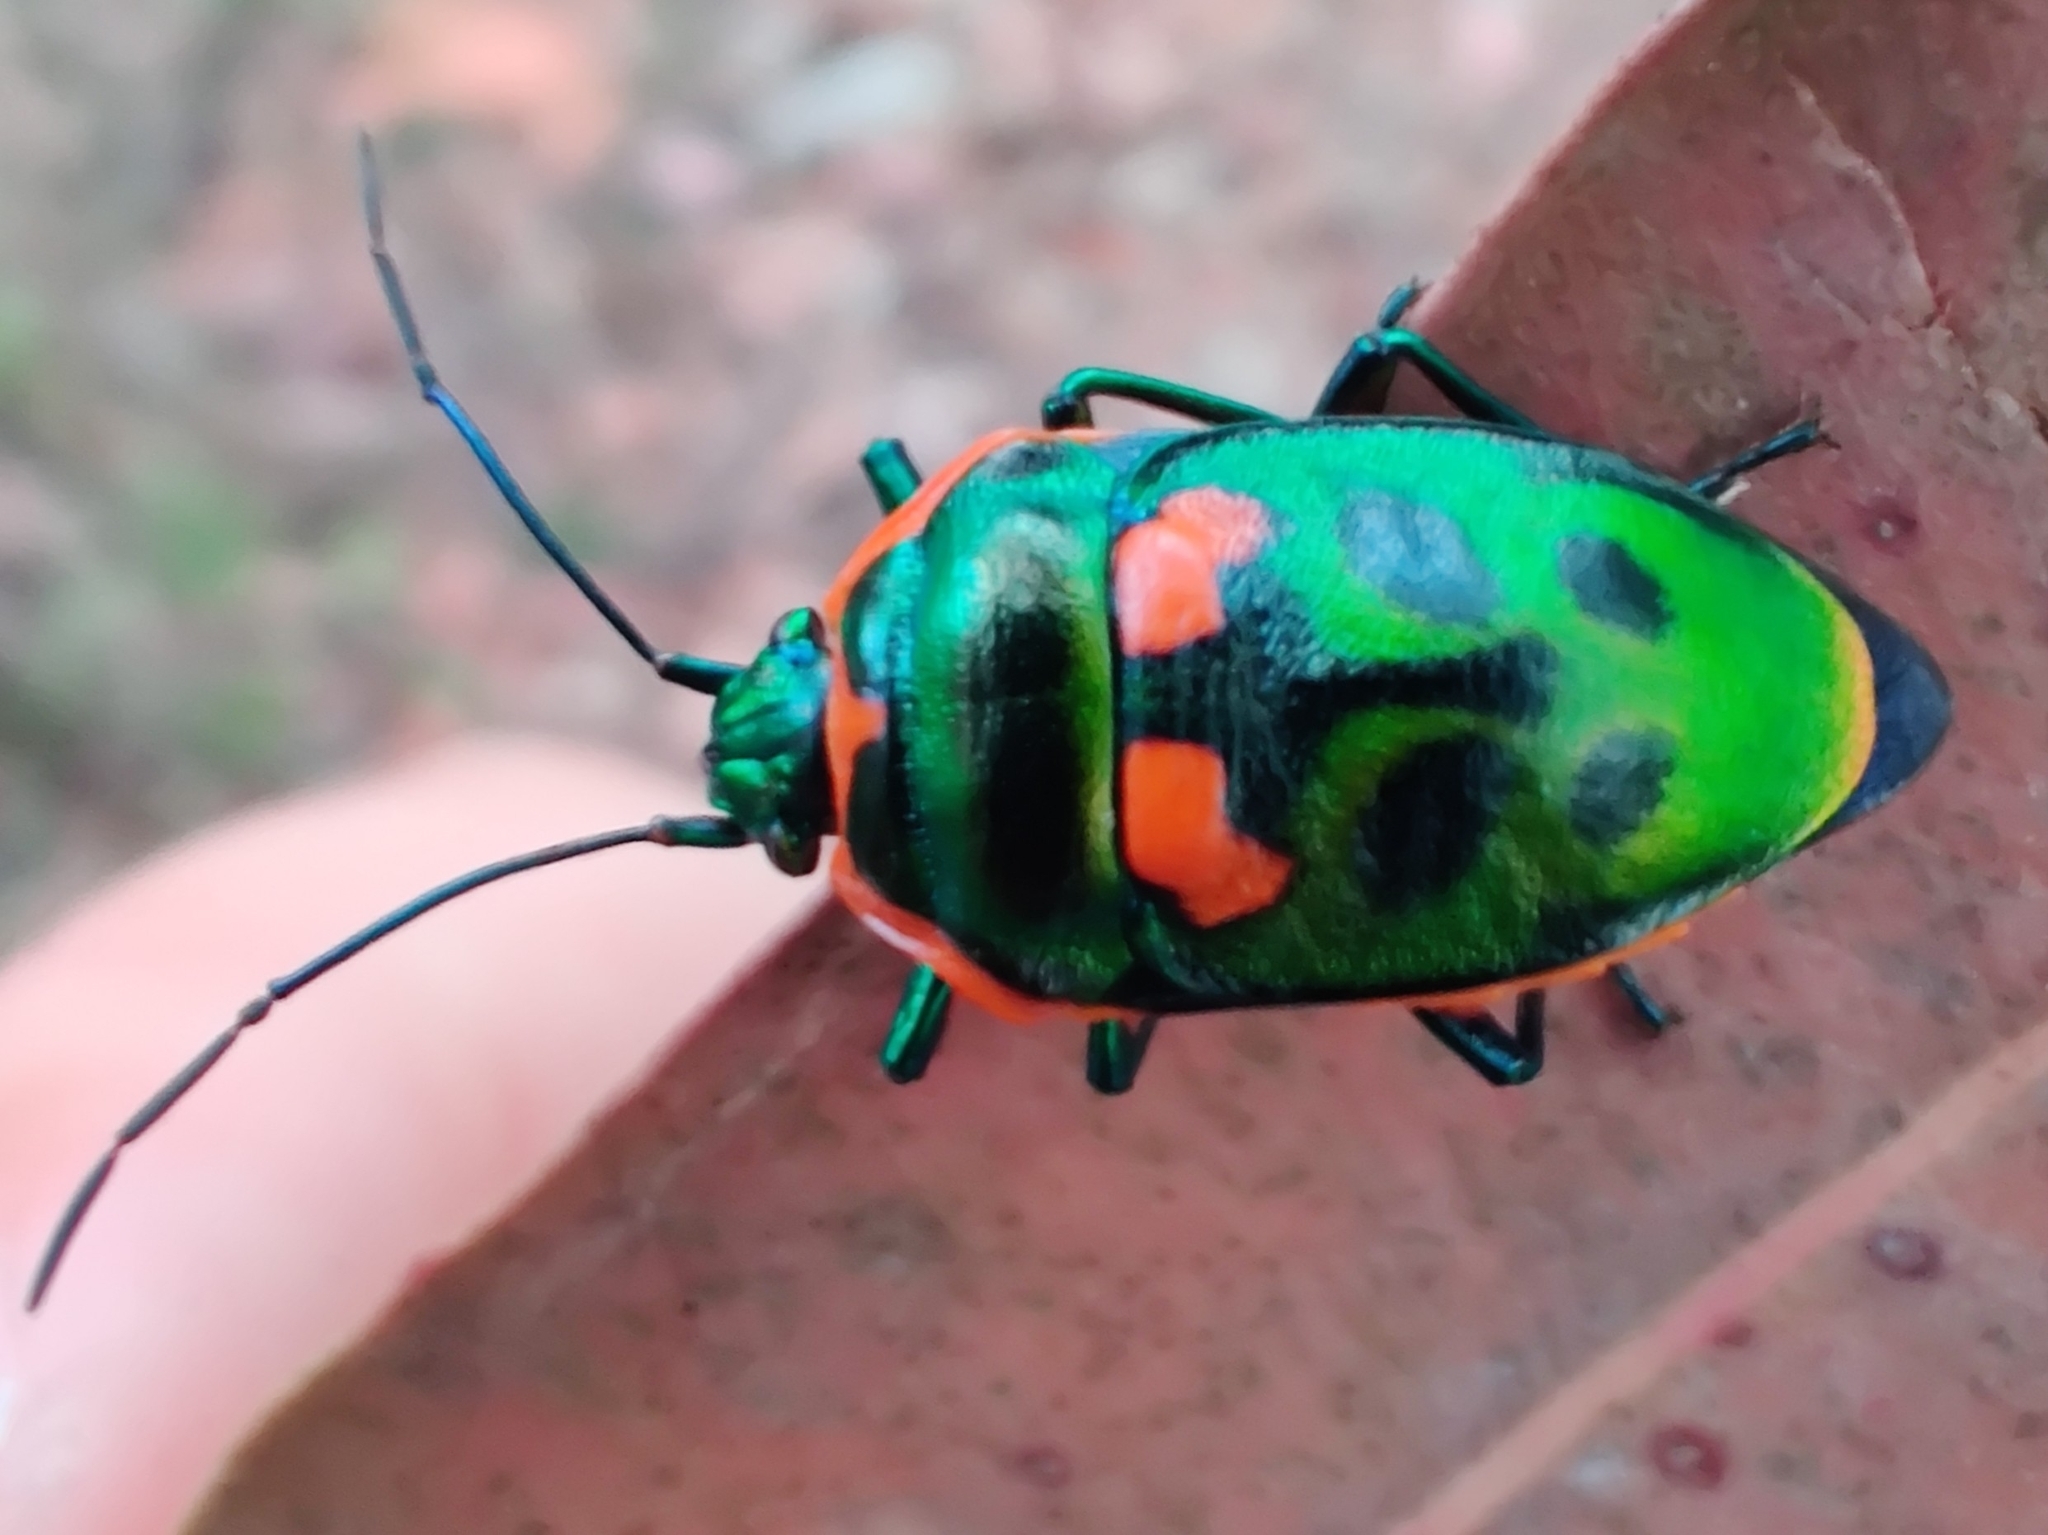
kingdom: Animalia
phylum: Arthropoda
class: Insecta
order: Hemiptera
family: Scutelleridae
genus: Scutiphora
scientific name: Scutiphora pedicellata
